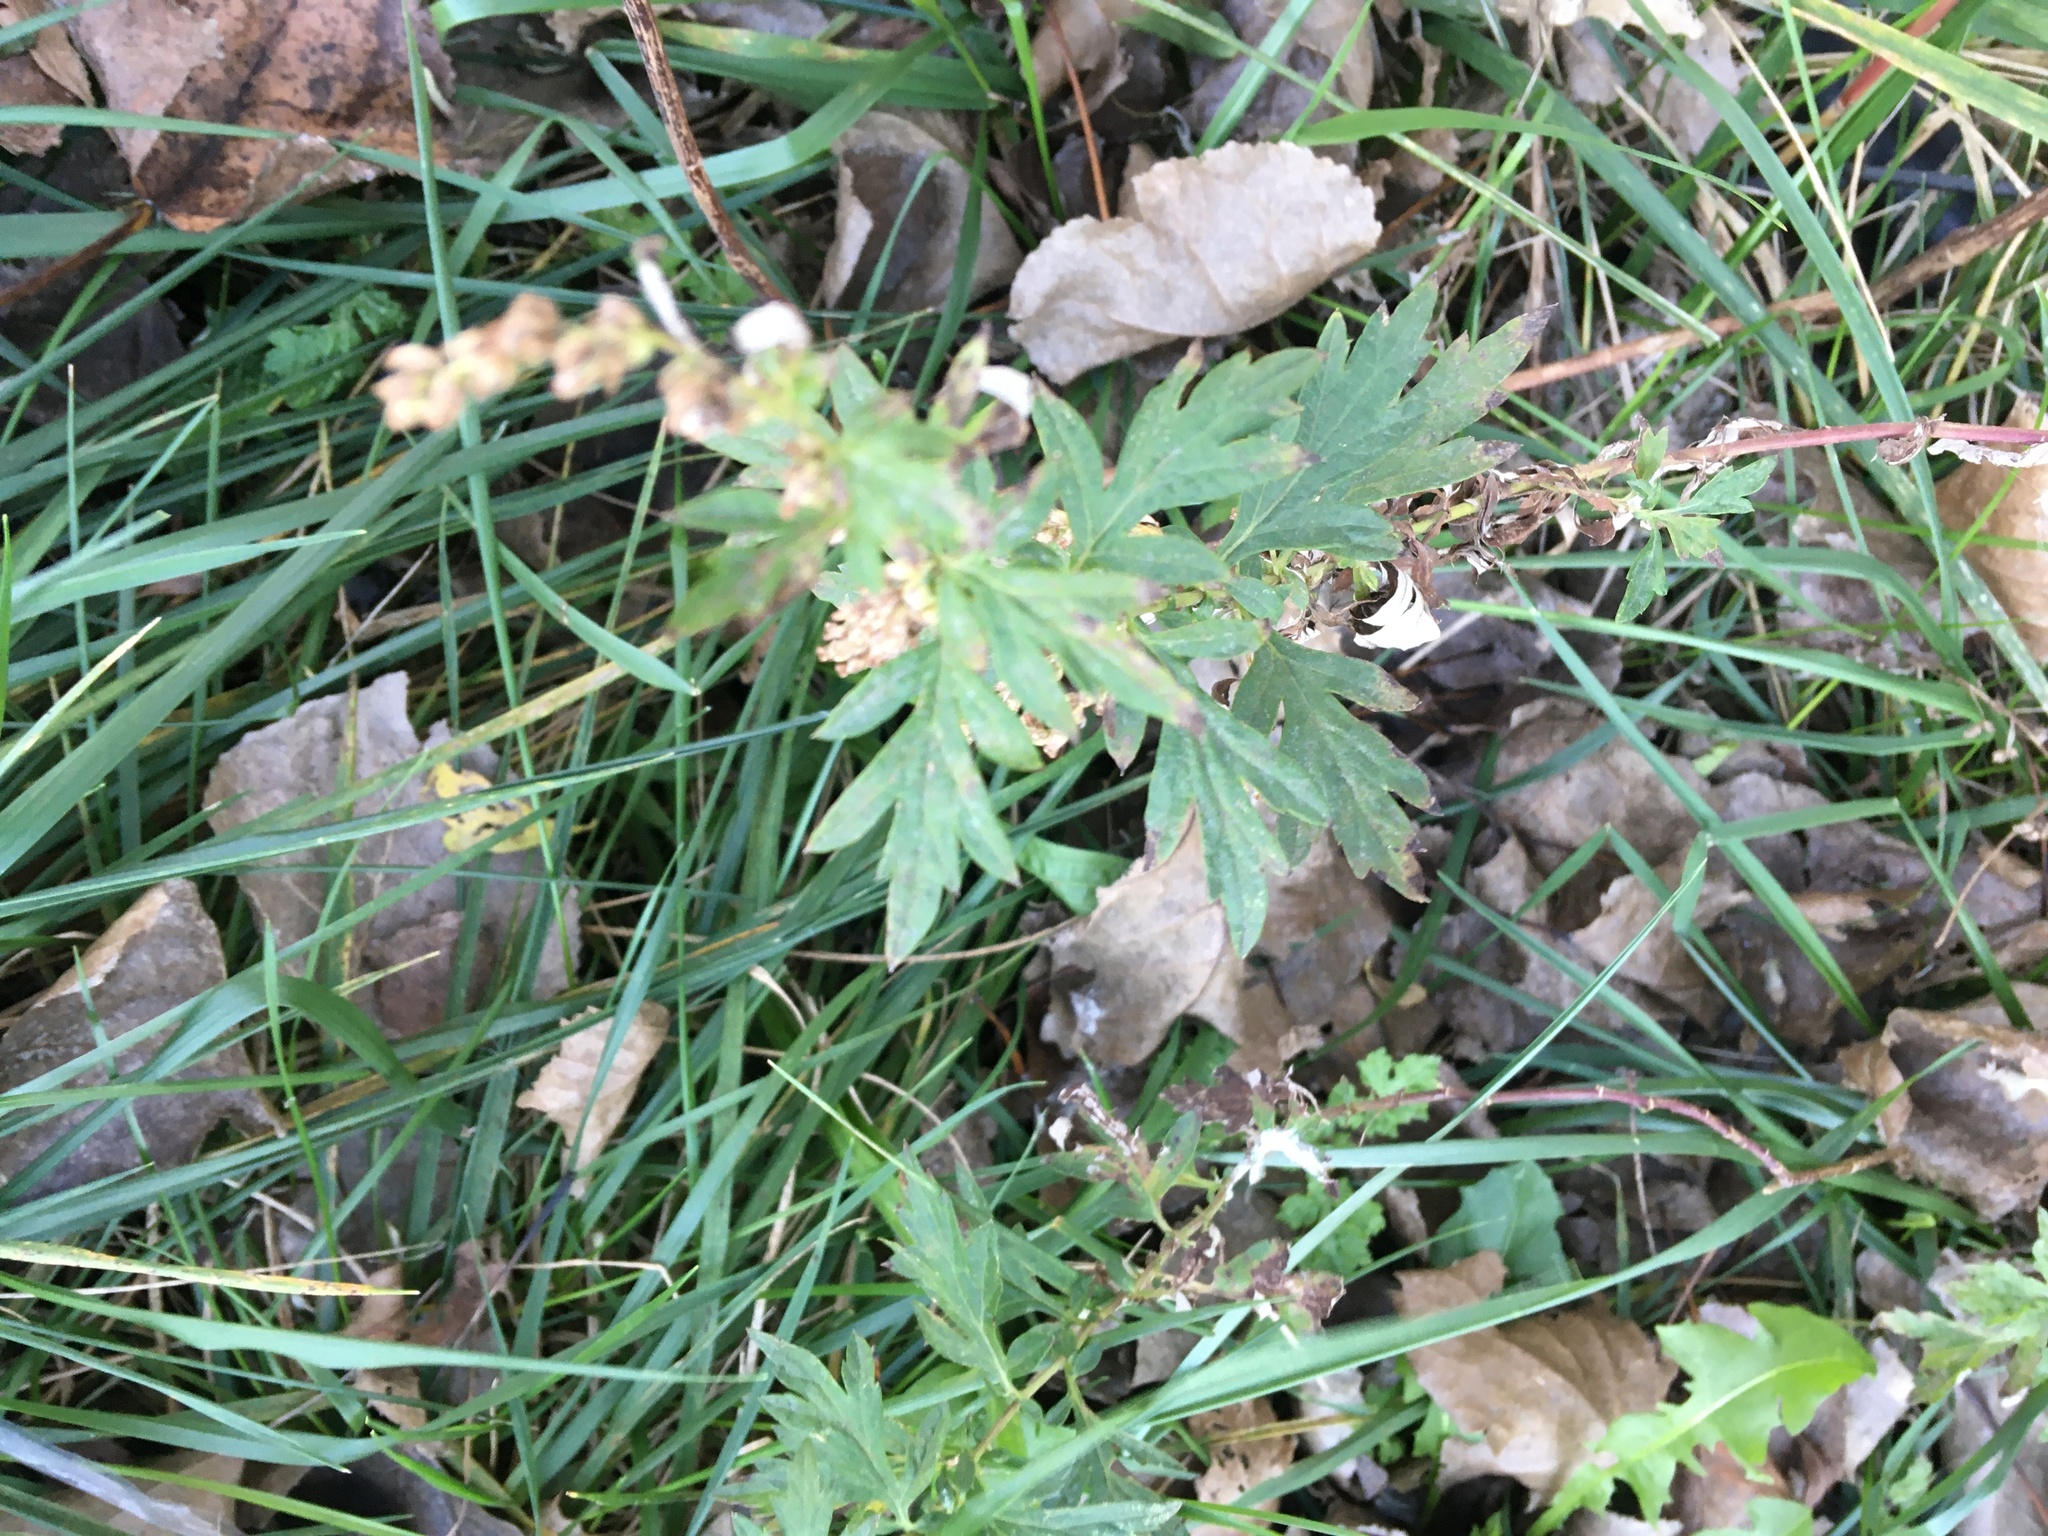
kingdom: Plantae
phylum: Tracheophyta
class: Magnoliopsida
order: Asterales
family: Asteraceae
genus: Artemisia
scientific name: Artemisia vulgaris
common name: Mugwort
